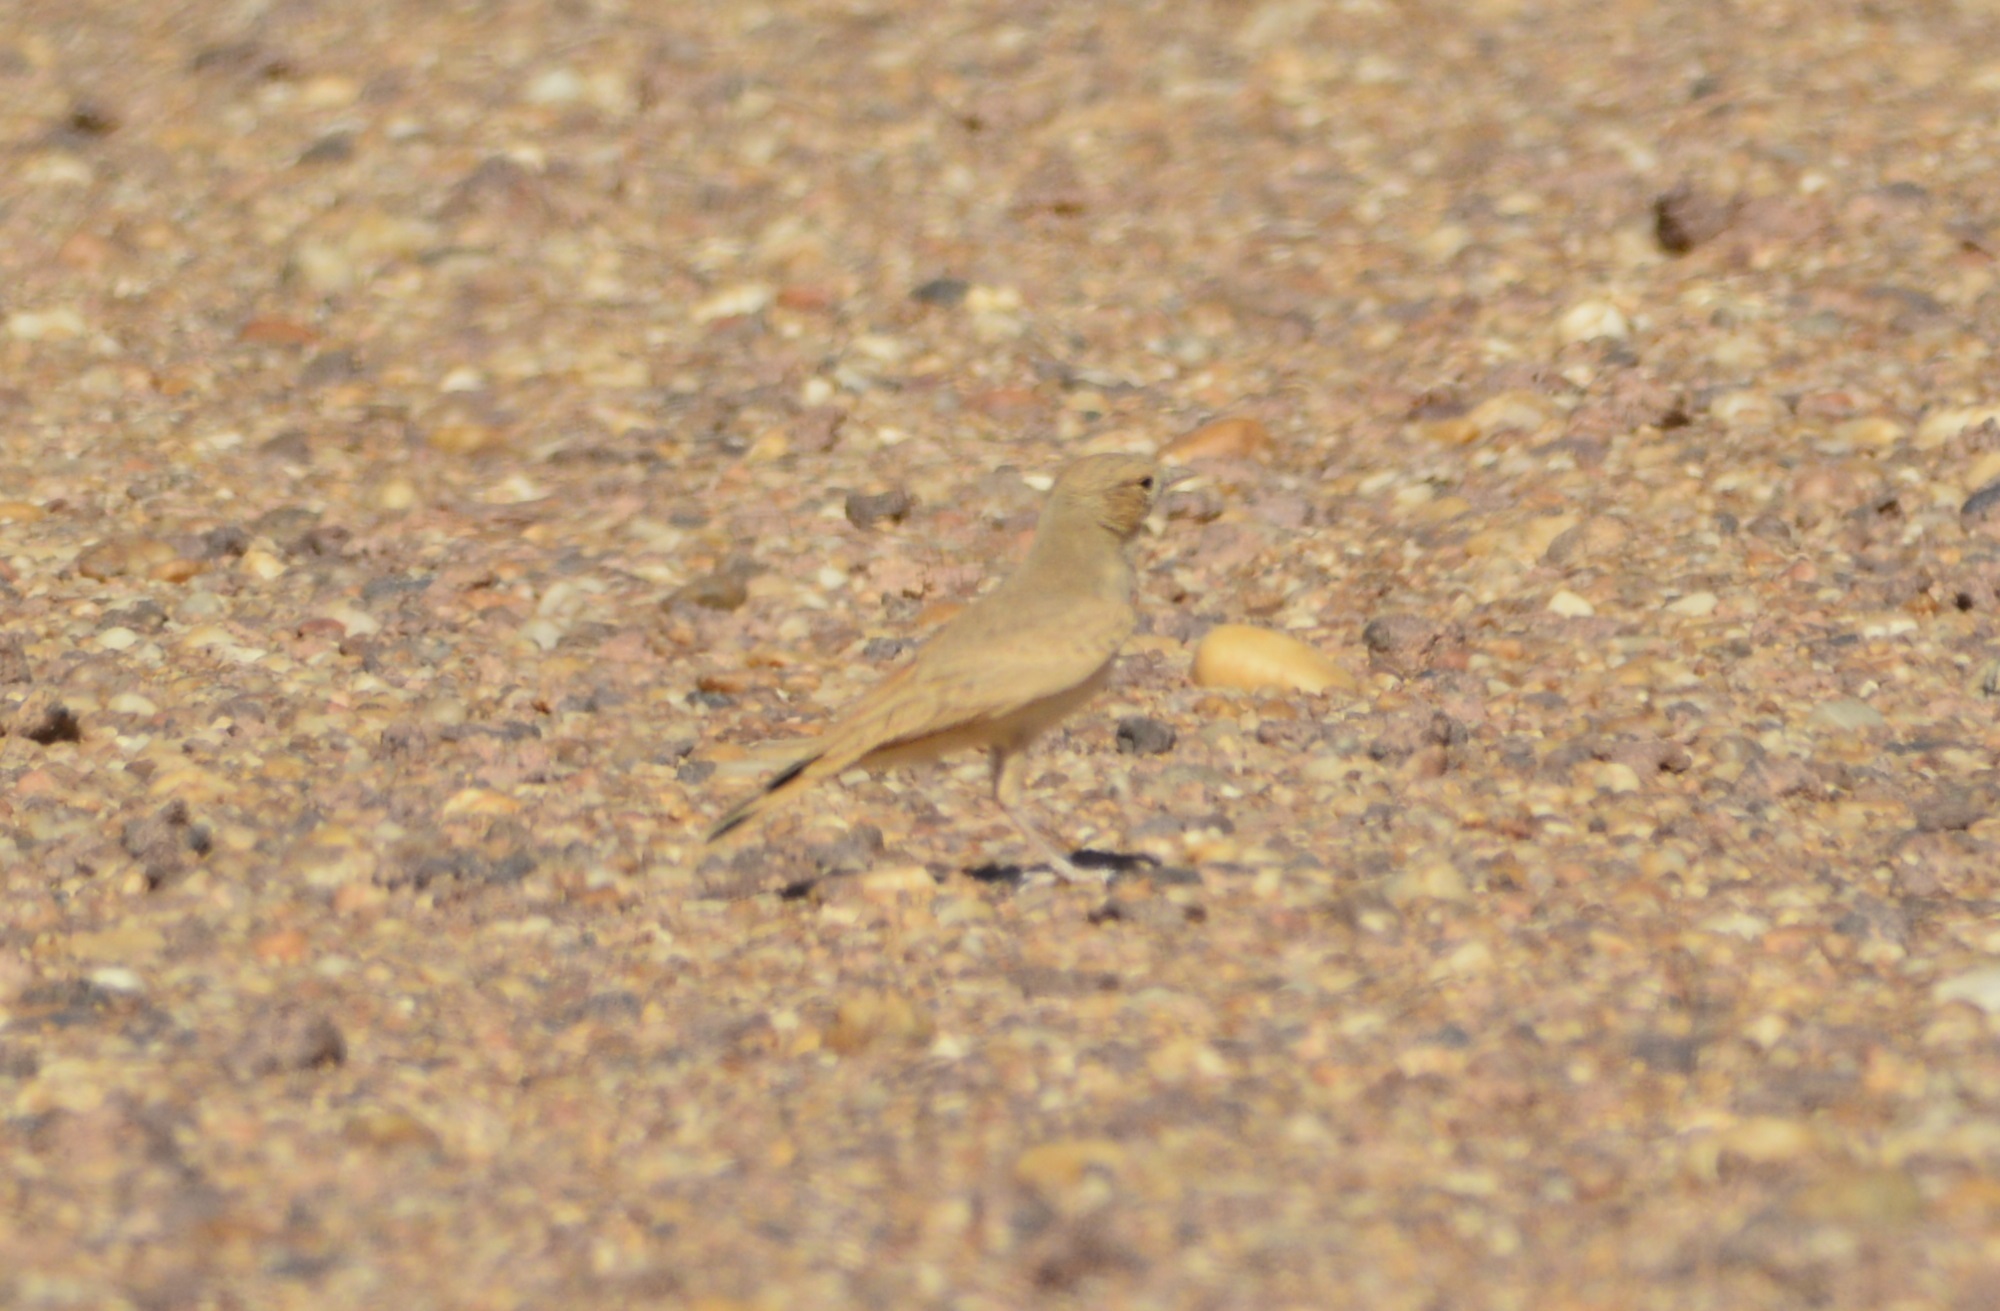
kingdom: Animalia
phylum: Chordata
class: Aves
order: Passeriformes
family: Alaudidae
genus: Ammomanes
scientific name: Ammomanes cinctura
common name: Bar-tailed lark
